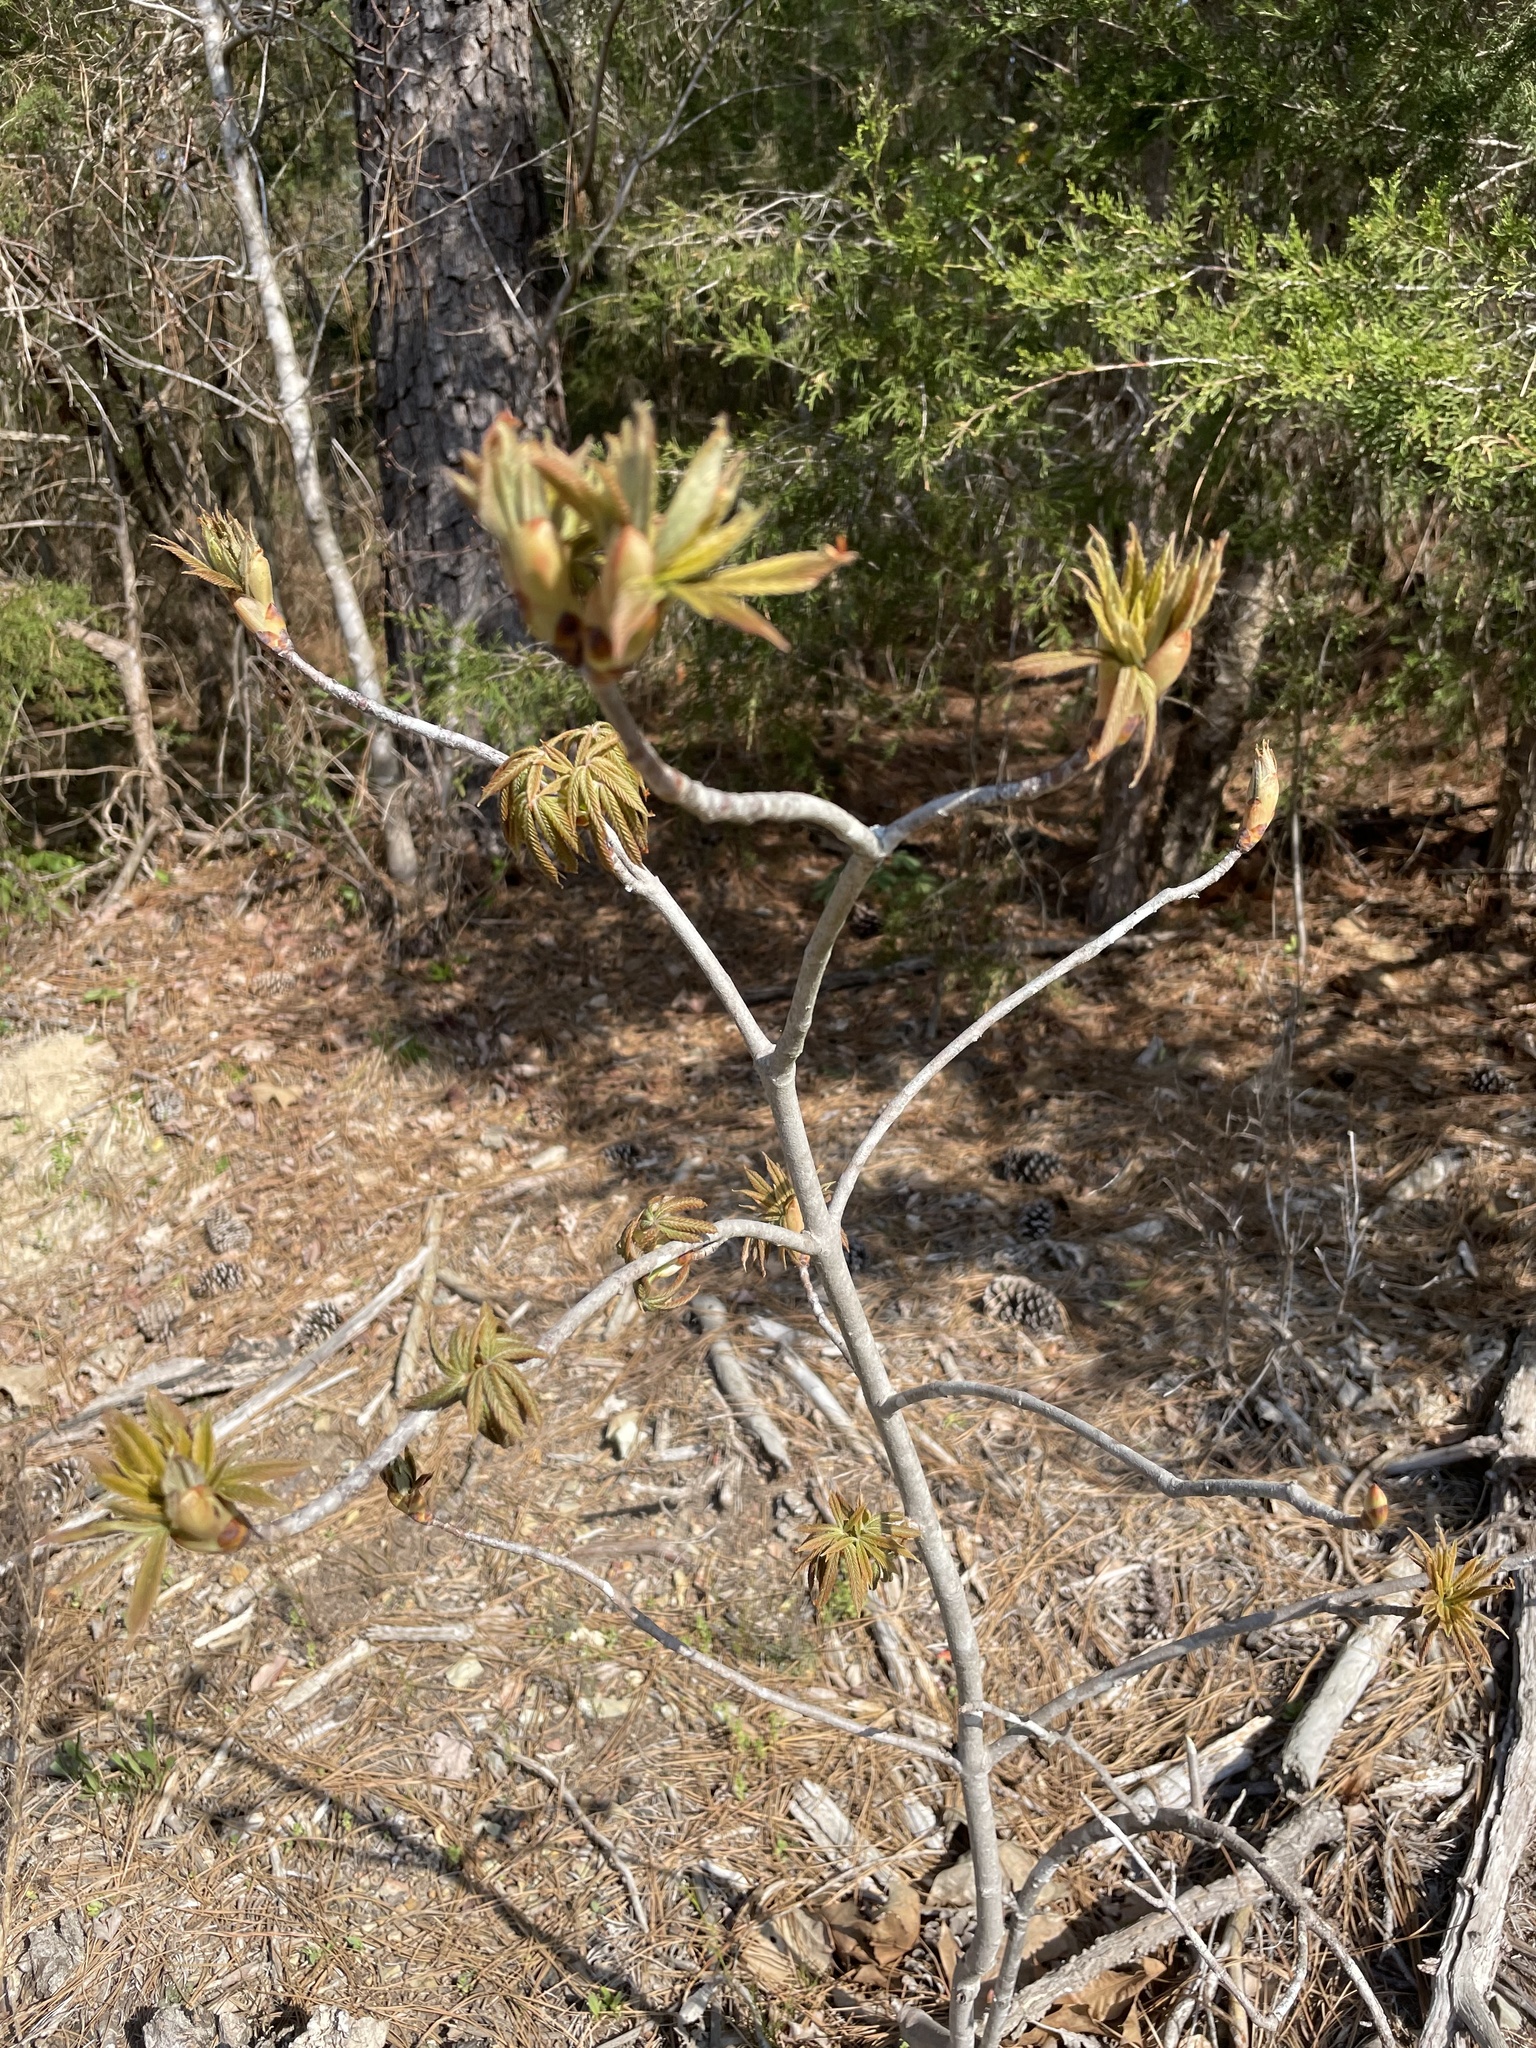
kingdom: Plantae
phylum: Tracheophyta
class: Magnoliopsida
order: Sapindales
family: Sapindaceae
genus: Aesculus
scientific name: Aesculus sylvatica
